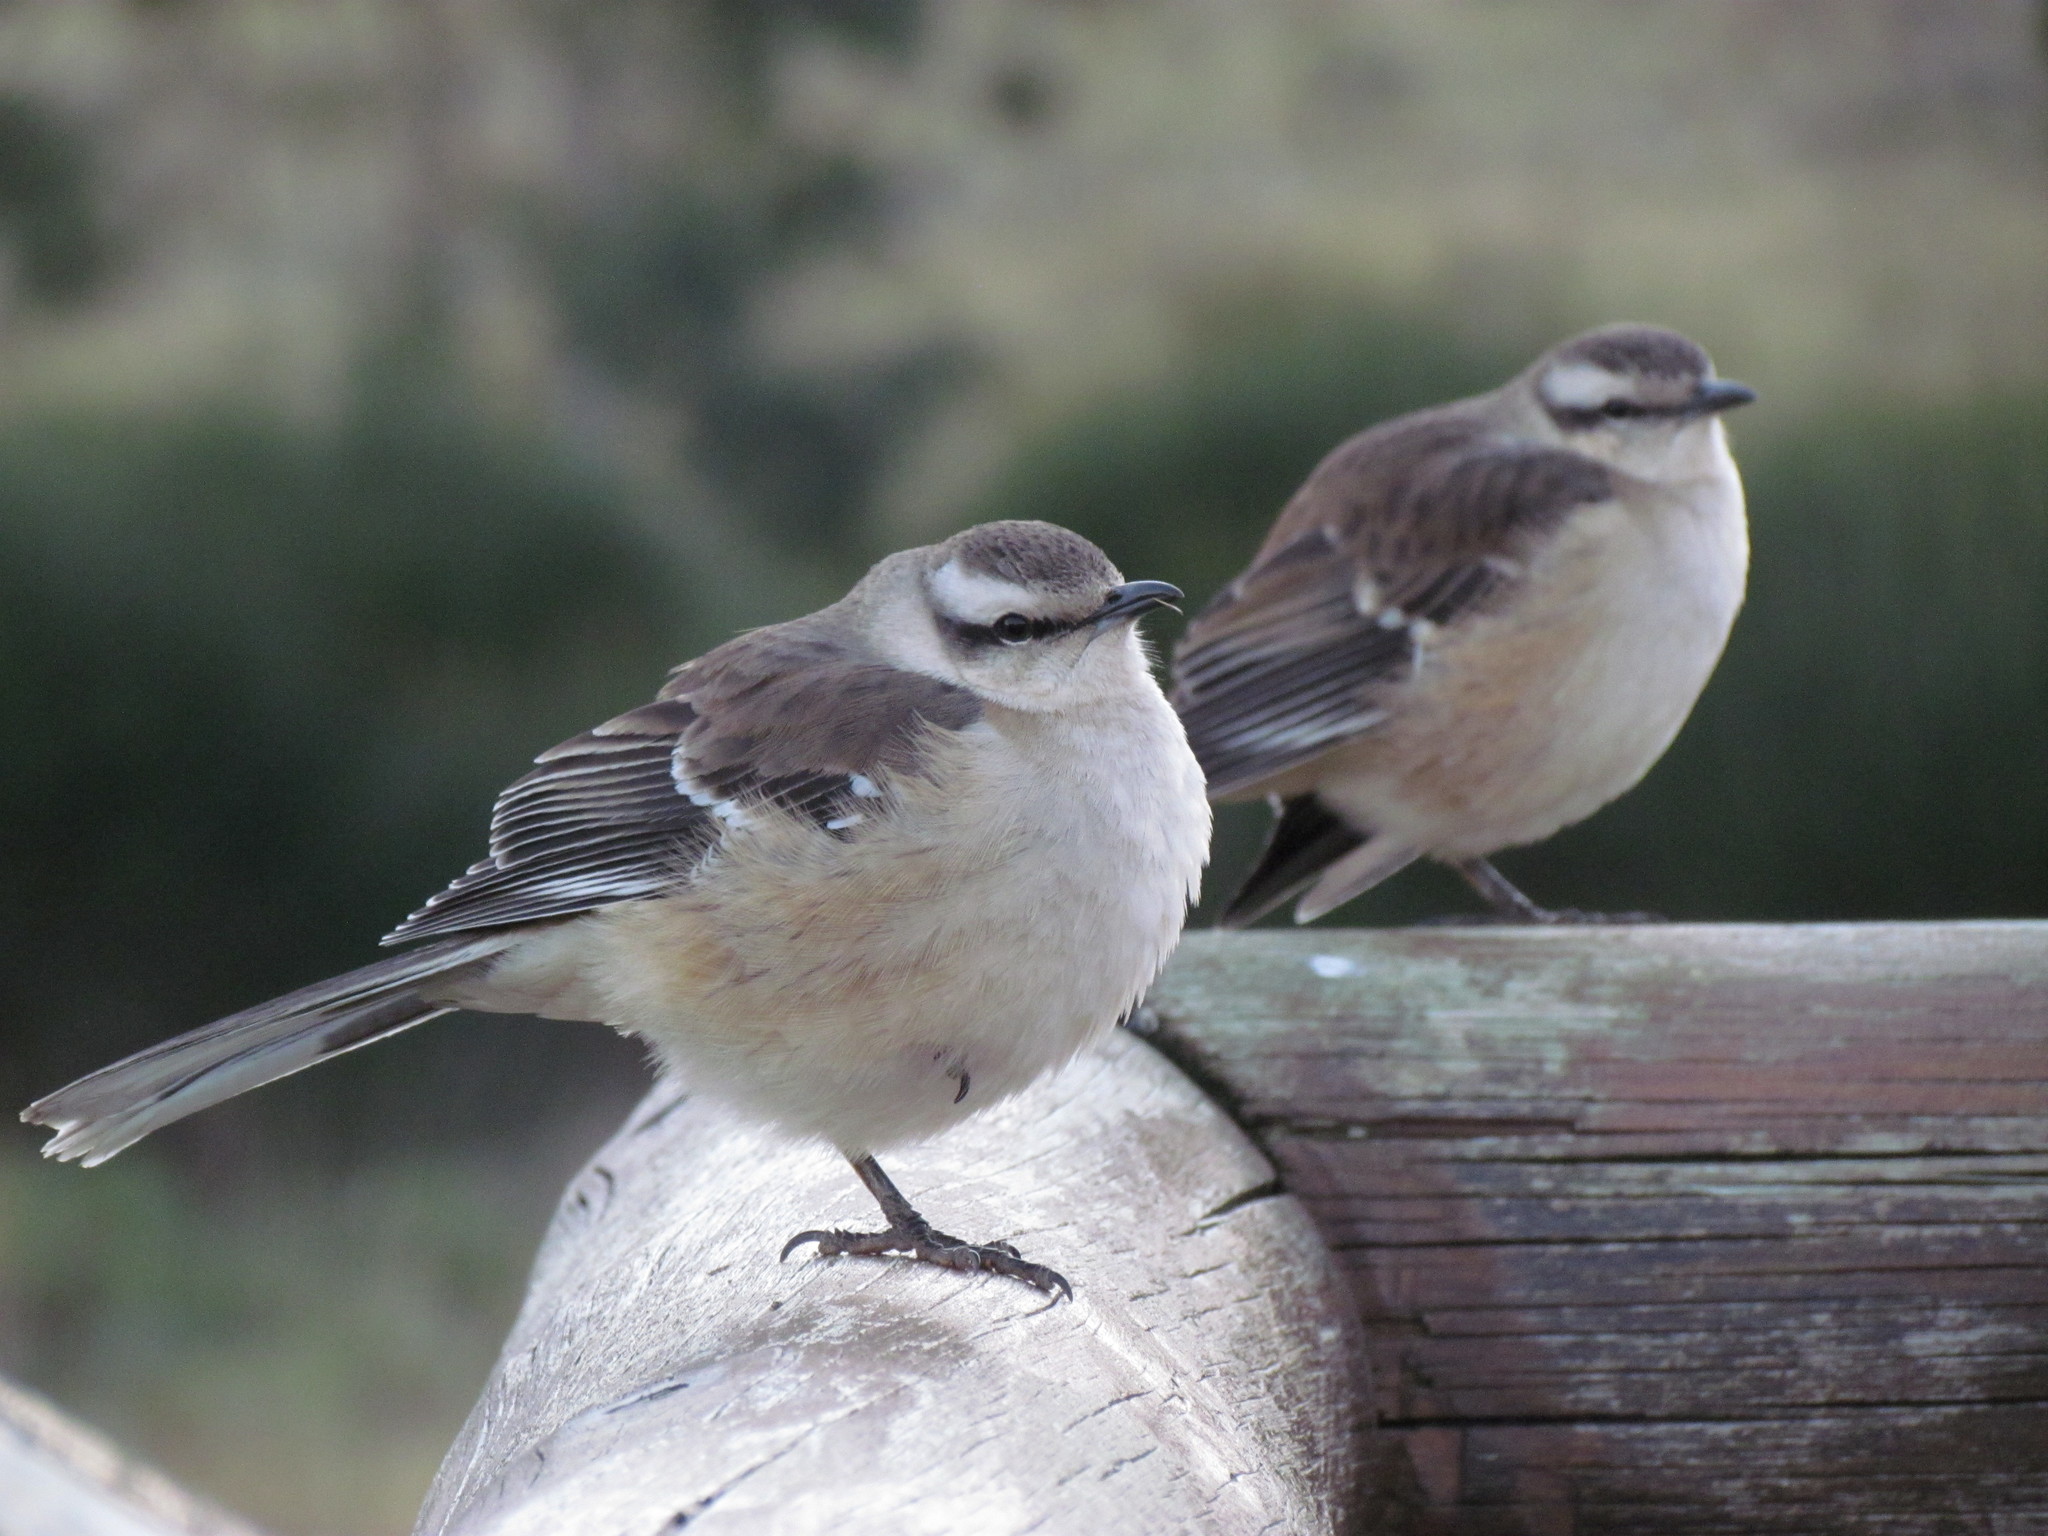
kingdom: Animalia
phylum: Chordata
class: Aves
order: Passeriformes
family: Mimidae
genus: Mimus
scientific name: Mimus saturninus
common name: Chalk-browed mockingbird
